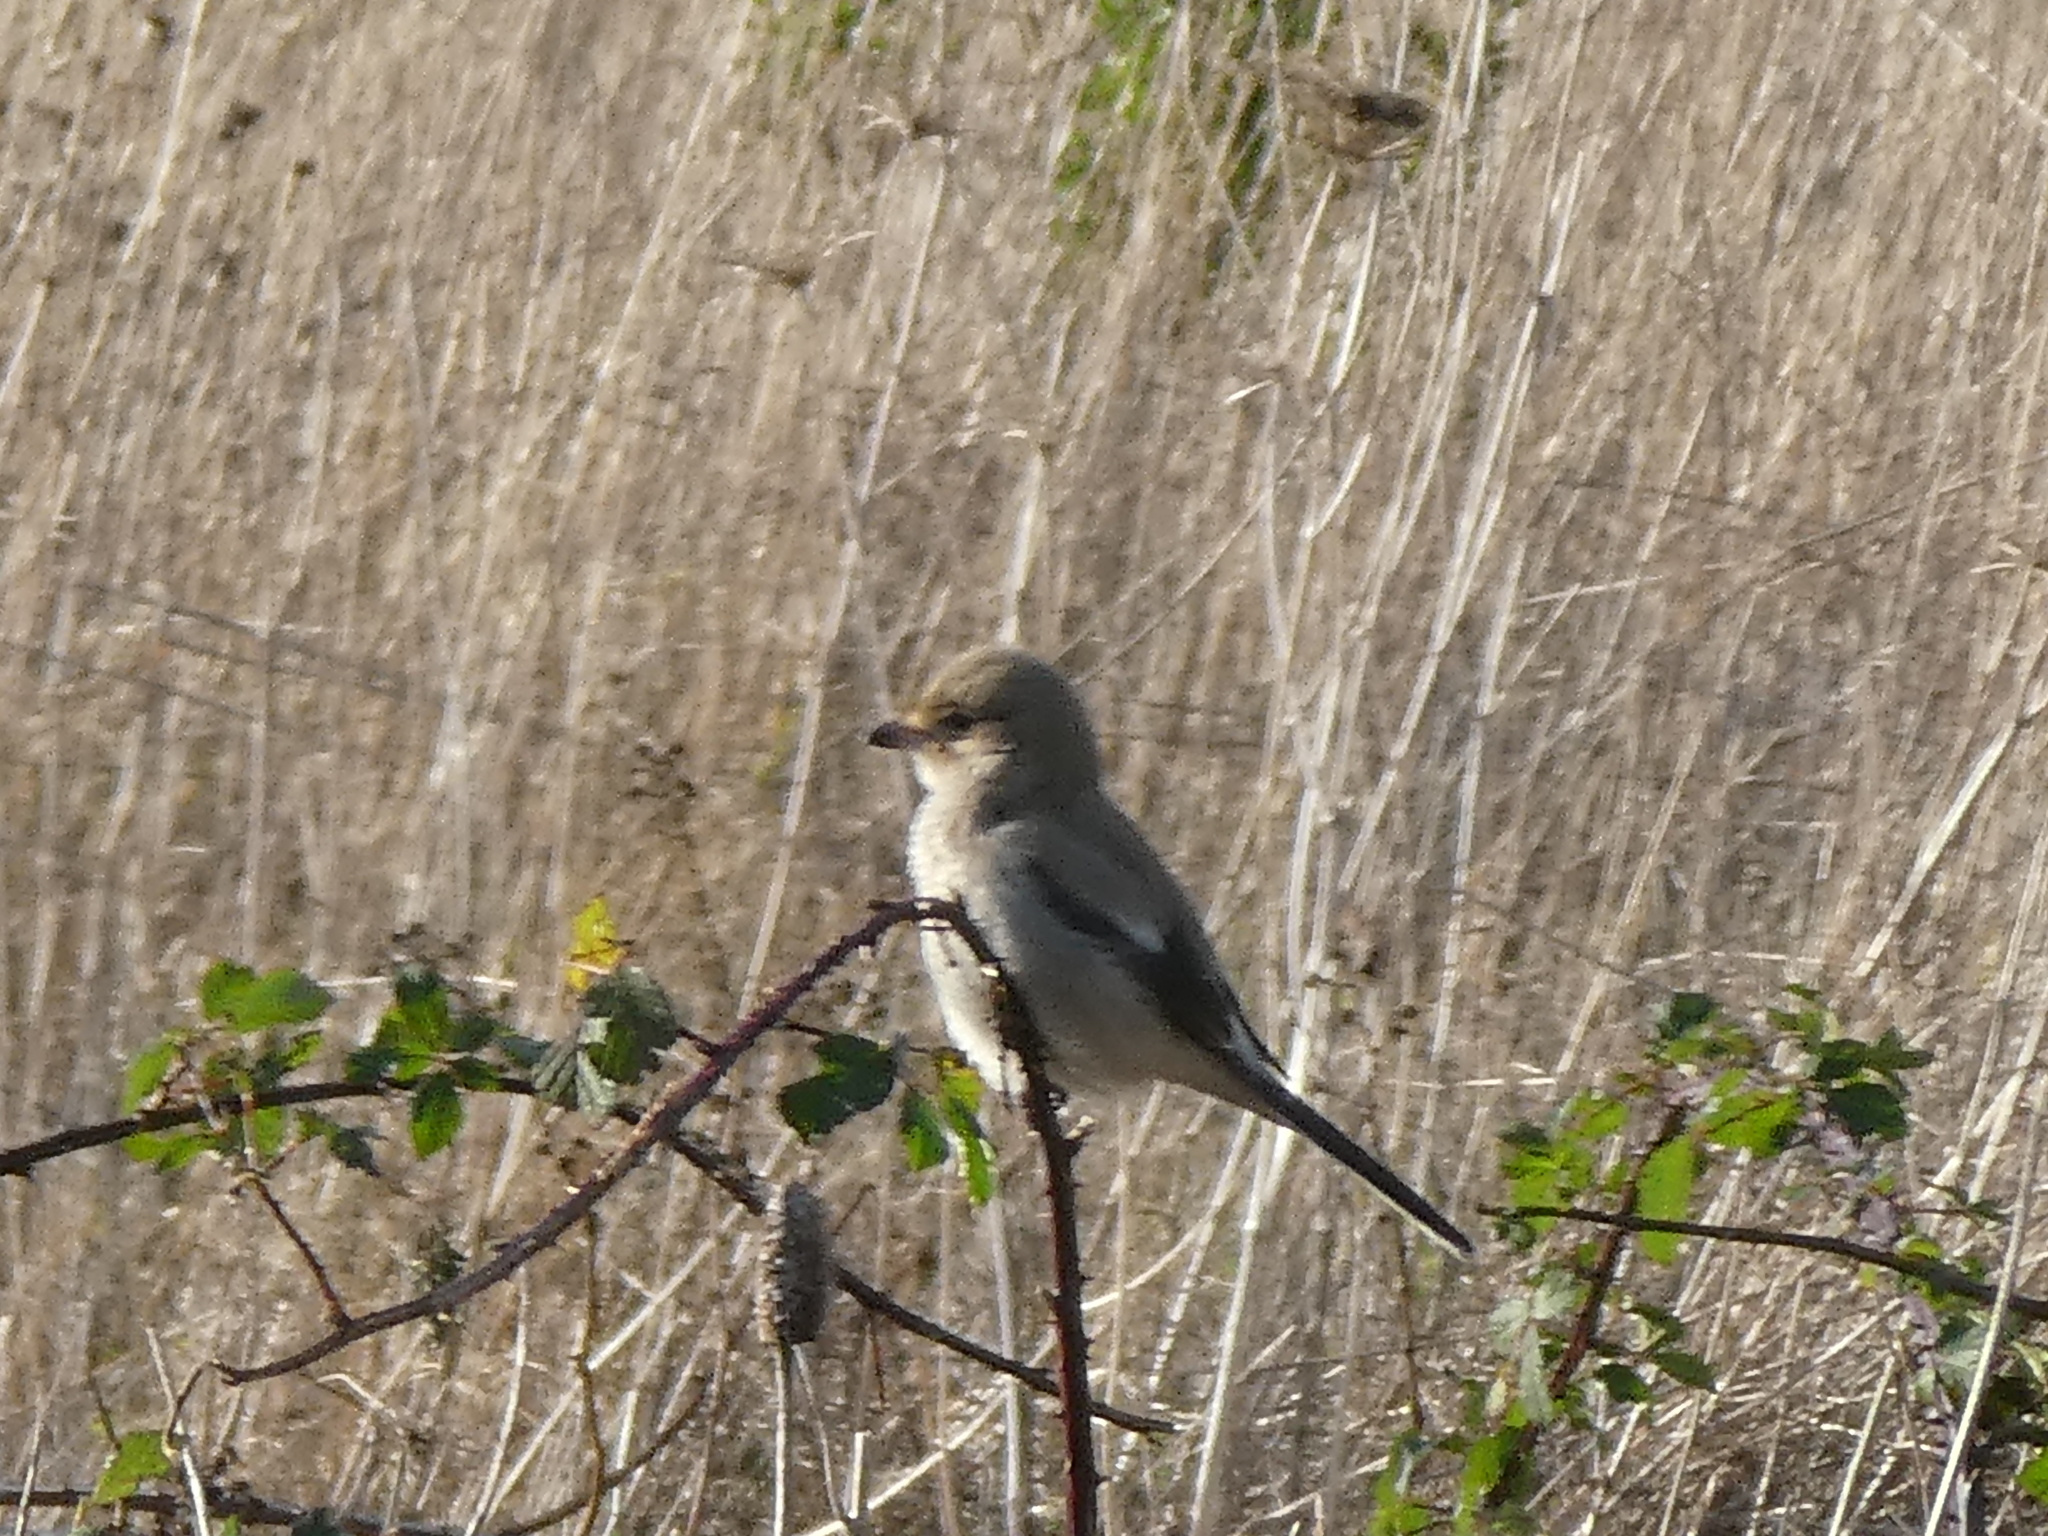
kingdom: Animalia
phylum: Chordata
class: Aves
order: Passeriformes
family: Laniidae
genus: Lanius
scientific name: Lanius borealis
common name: Northern shrike
